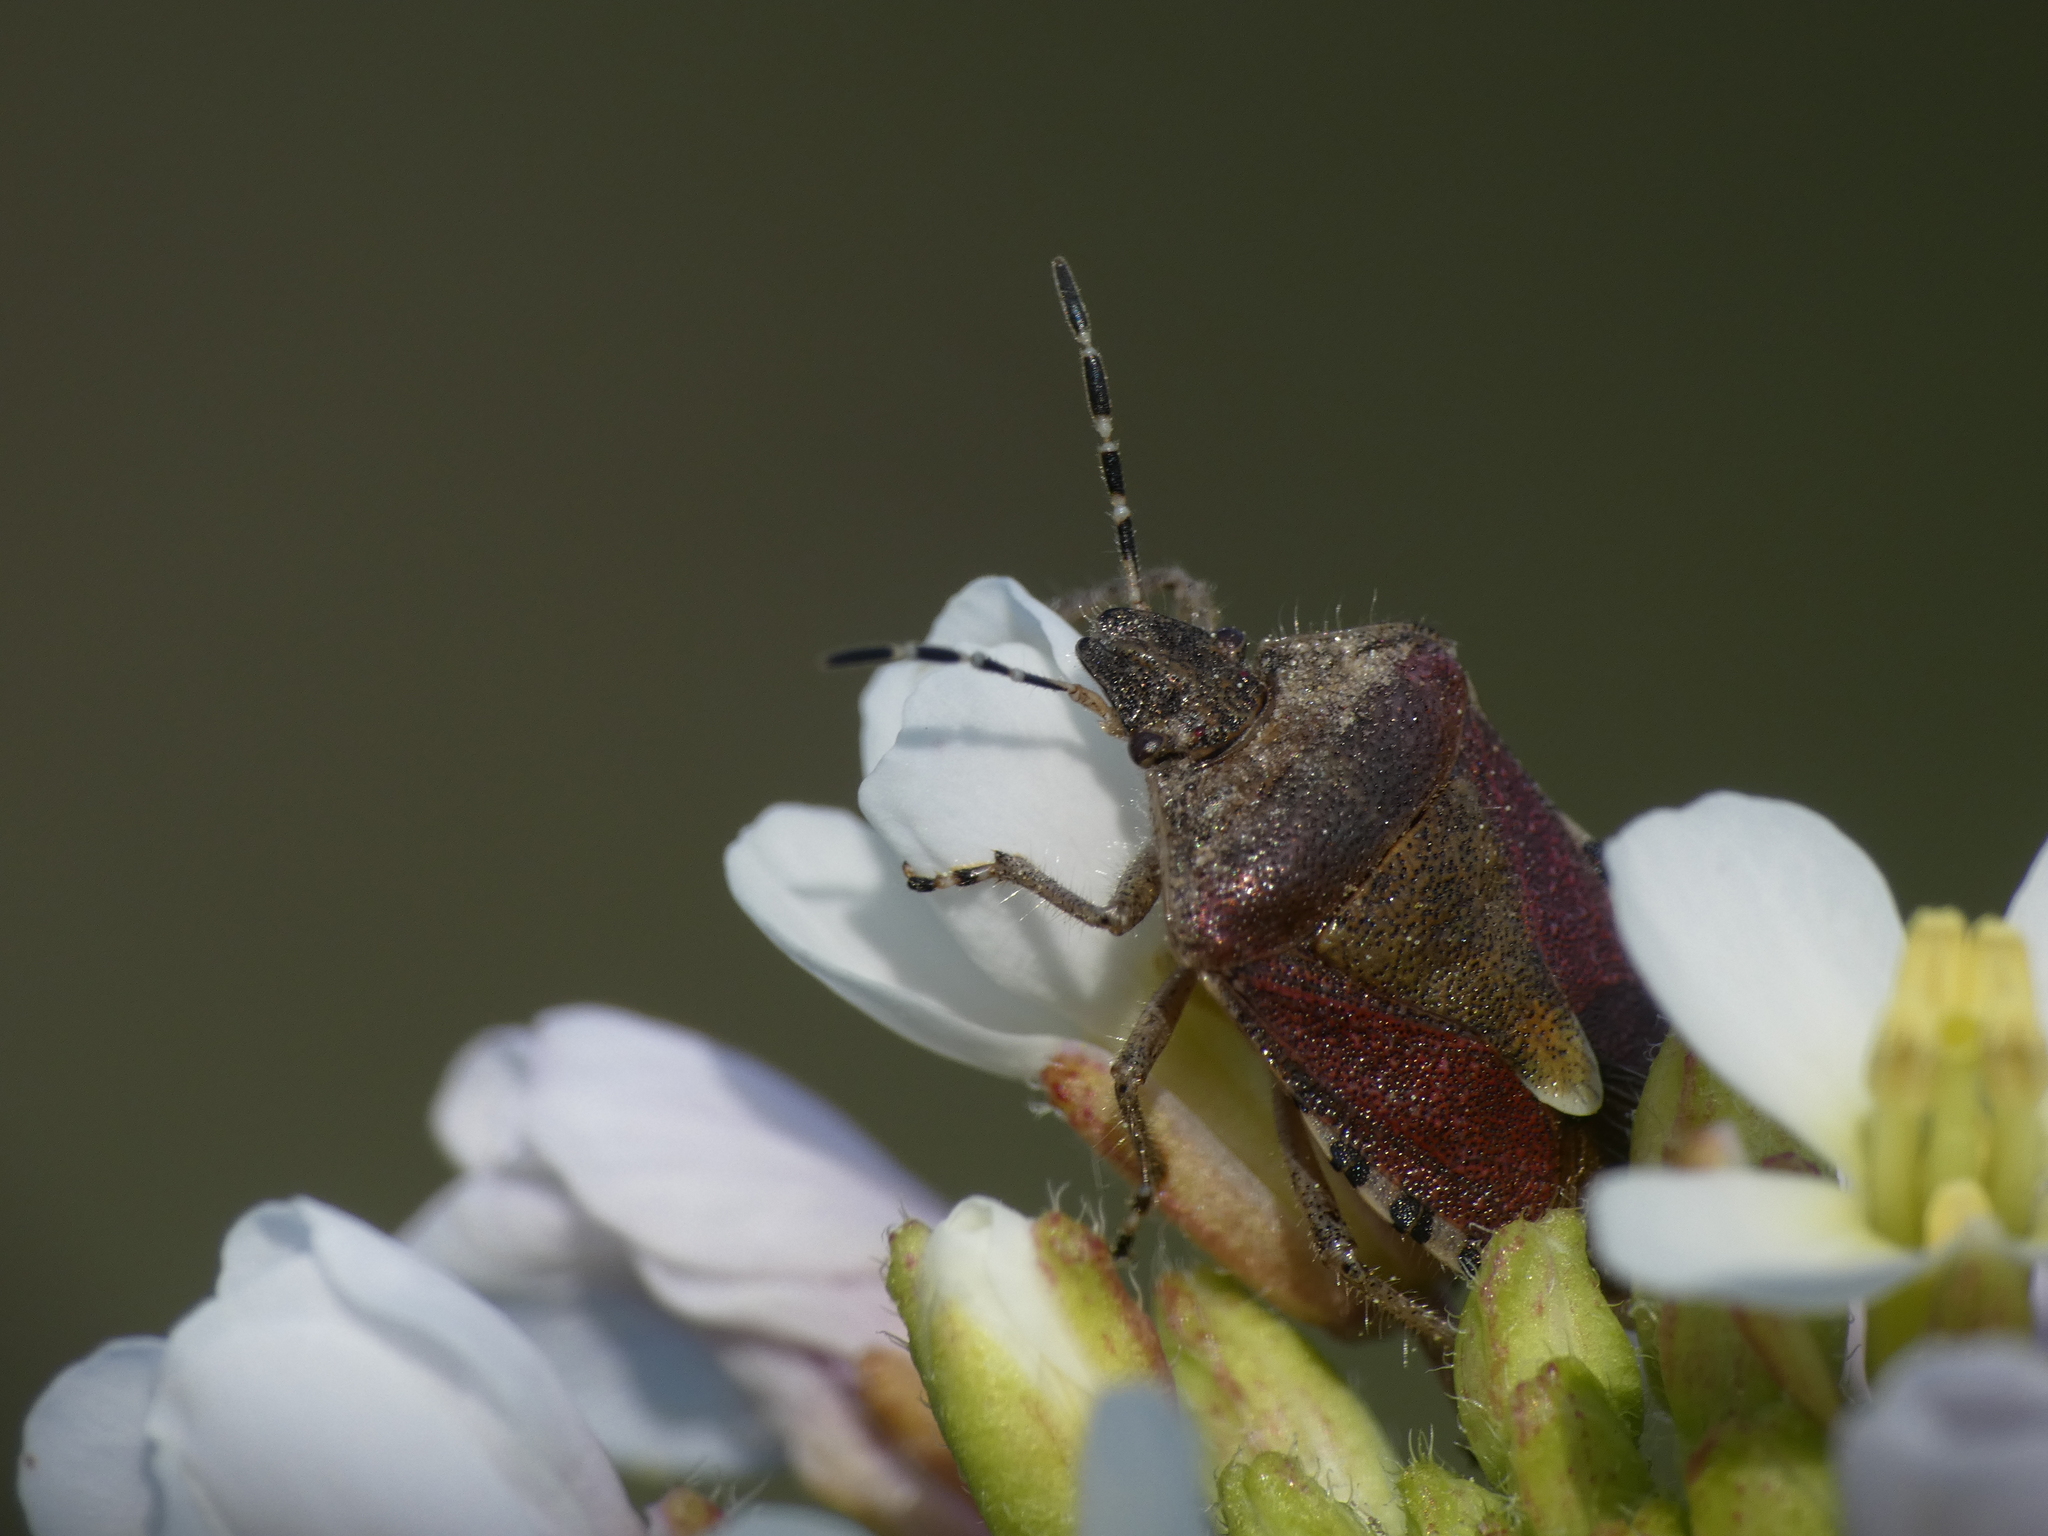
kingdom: Animalia
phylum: Arthropoda
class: Insecta
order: Hemiptera
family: Pentatomidae
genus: Dolycoris
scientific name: Dolycoris baccarum
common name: Sloe bug
